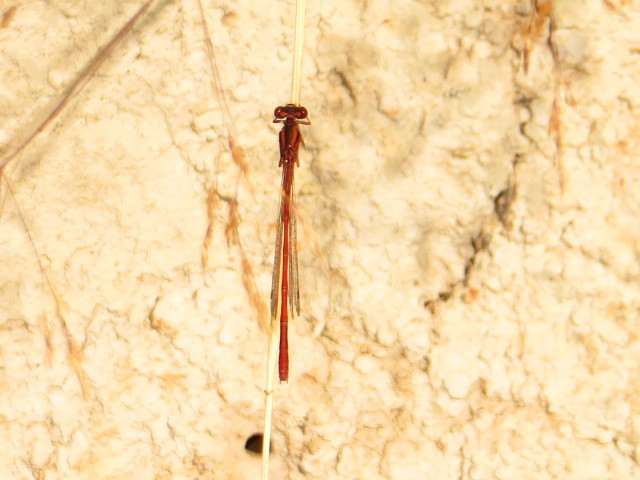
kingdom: Animalia
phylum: Arthropoda
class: Insecta
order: Odonata
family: Coenagrionidae
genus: Xanthocnemis
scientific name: Xanthocnemis zealandica
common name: Common redcoat damselfly
